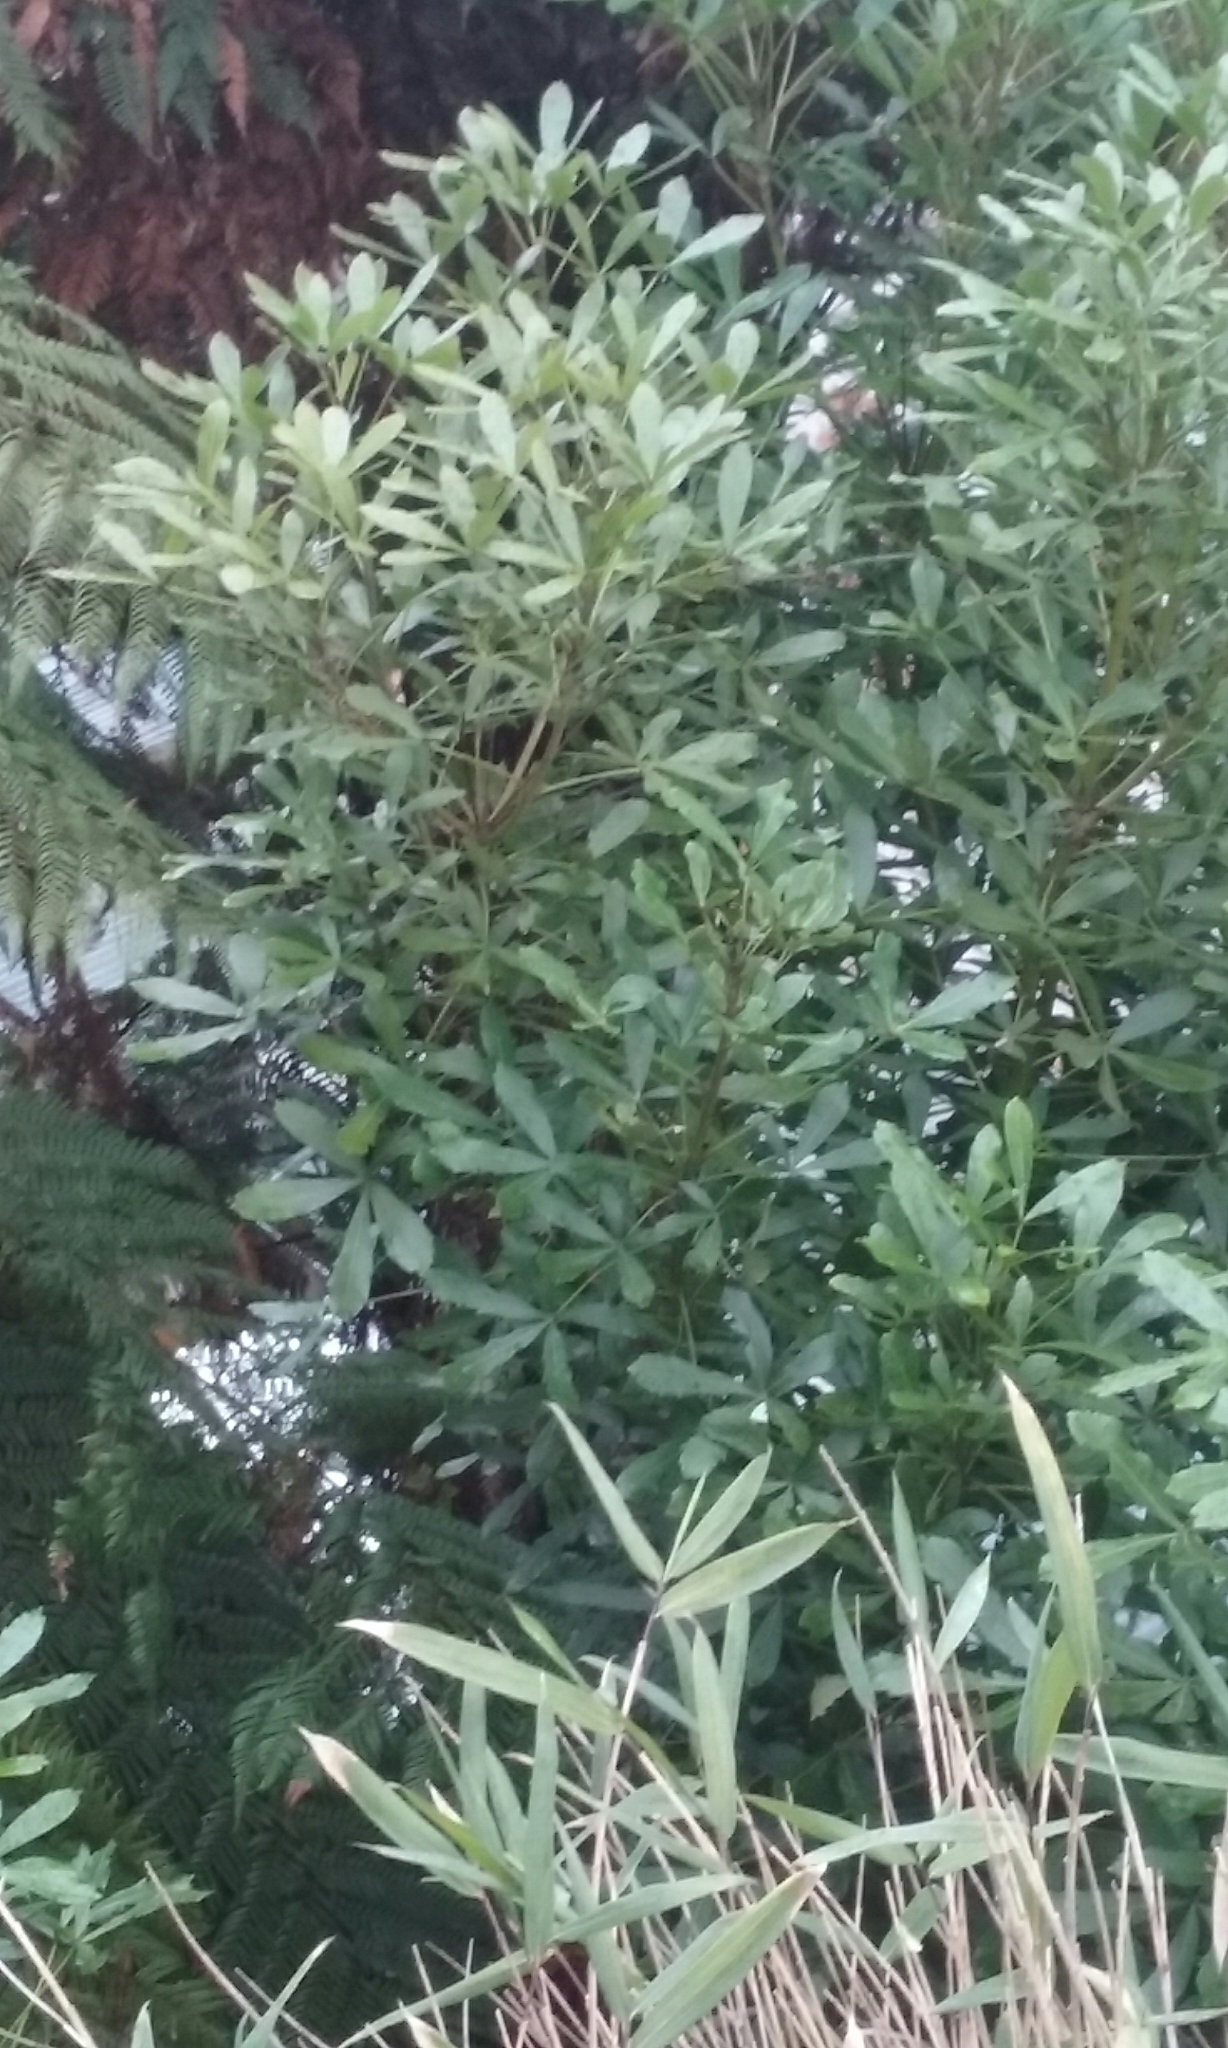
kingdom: Plantae
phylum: Tracheophyta
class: Magnoliopsida
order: Apiales
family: Araliaceae
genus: Pseudopanax
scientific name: Pseudopanax lessonii
